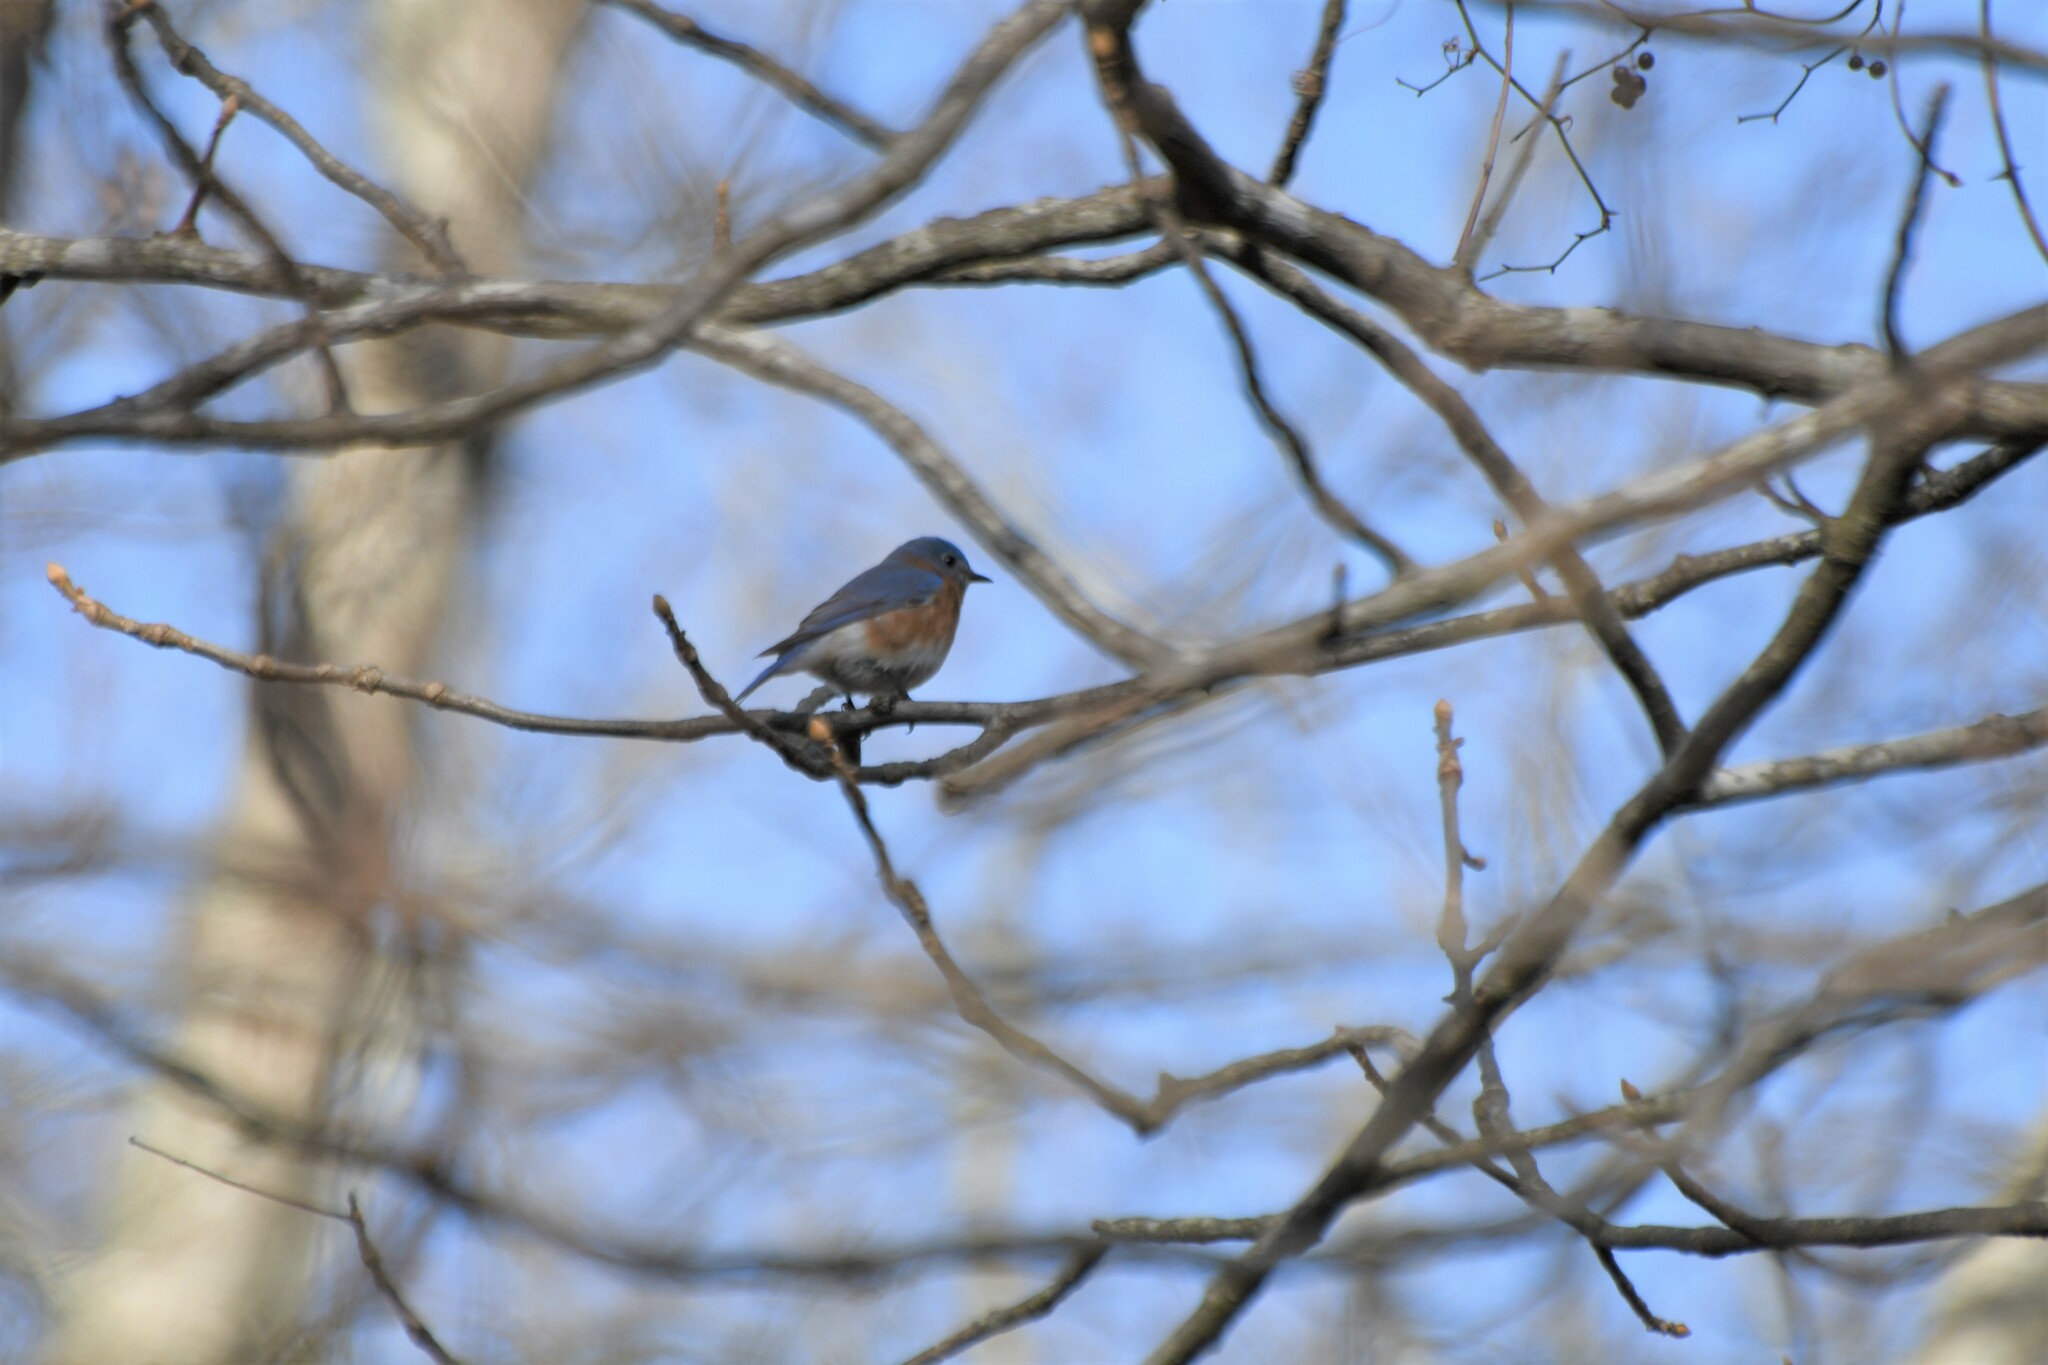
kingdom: Animalia
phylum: Chordata
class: Aves
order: Passeriformes
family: Turdidae
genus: Sialia
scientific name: Sialia sialis
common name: Eastern bluebird
